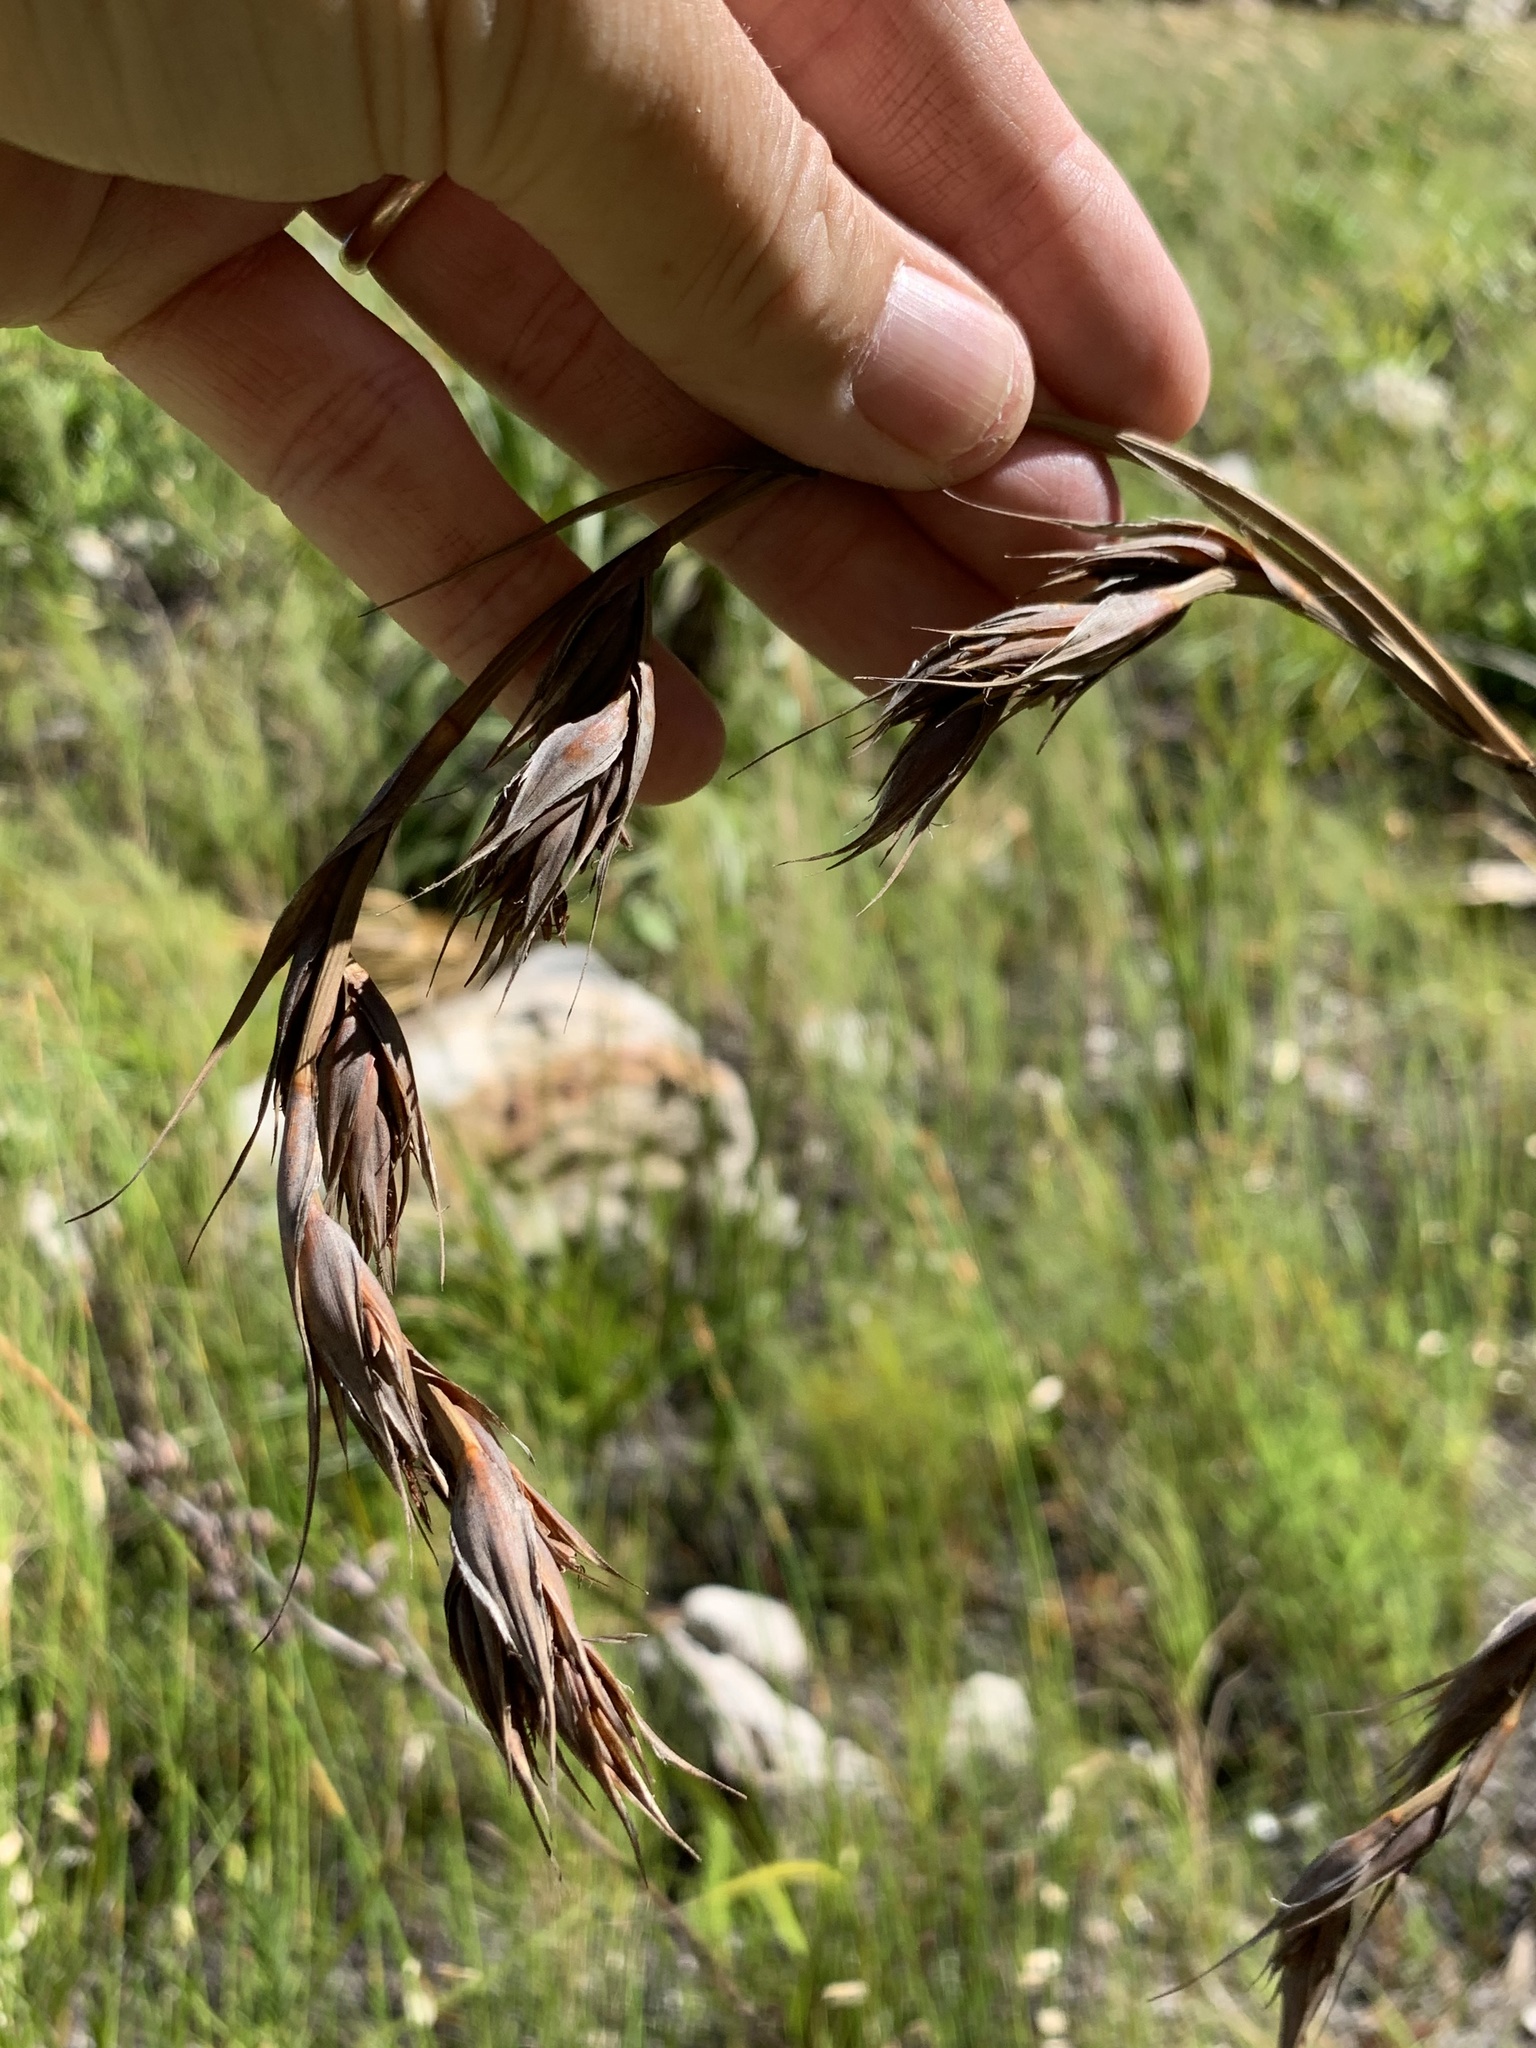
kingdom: Plantae
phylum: Tracheophyta
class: Liliopsida
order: Poales
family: Cyperaceae
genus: Tetraria
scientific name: Tetraria thermalis
